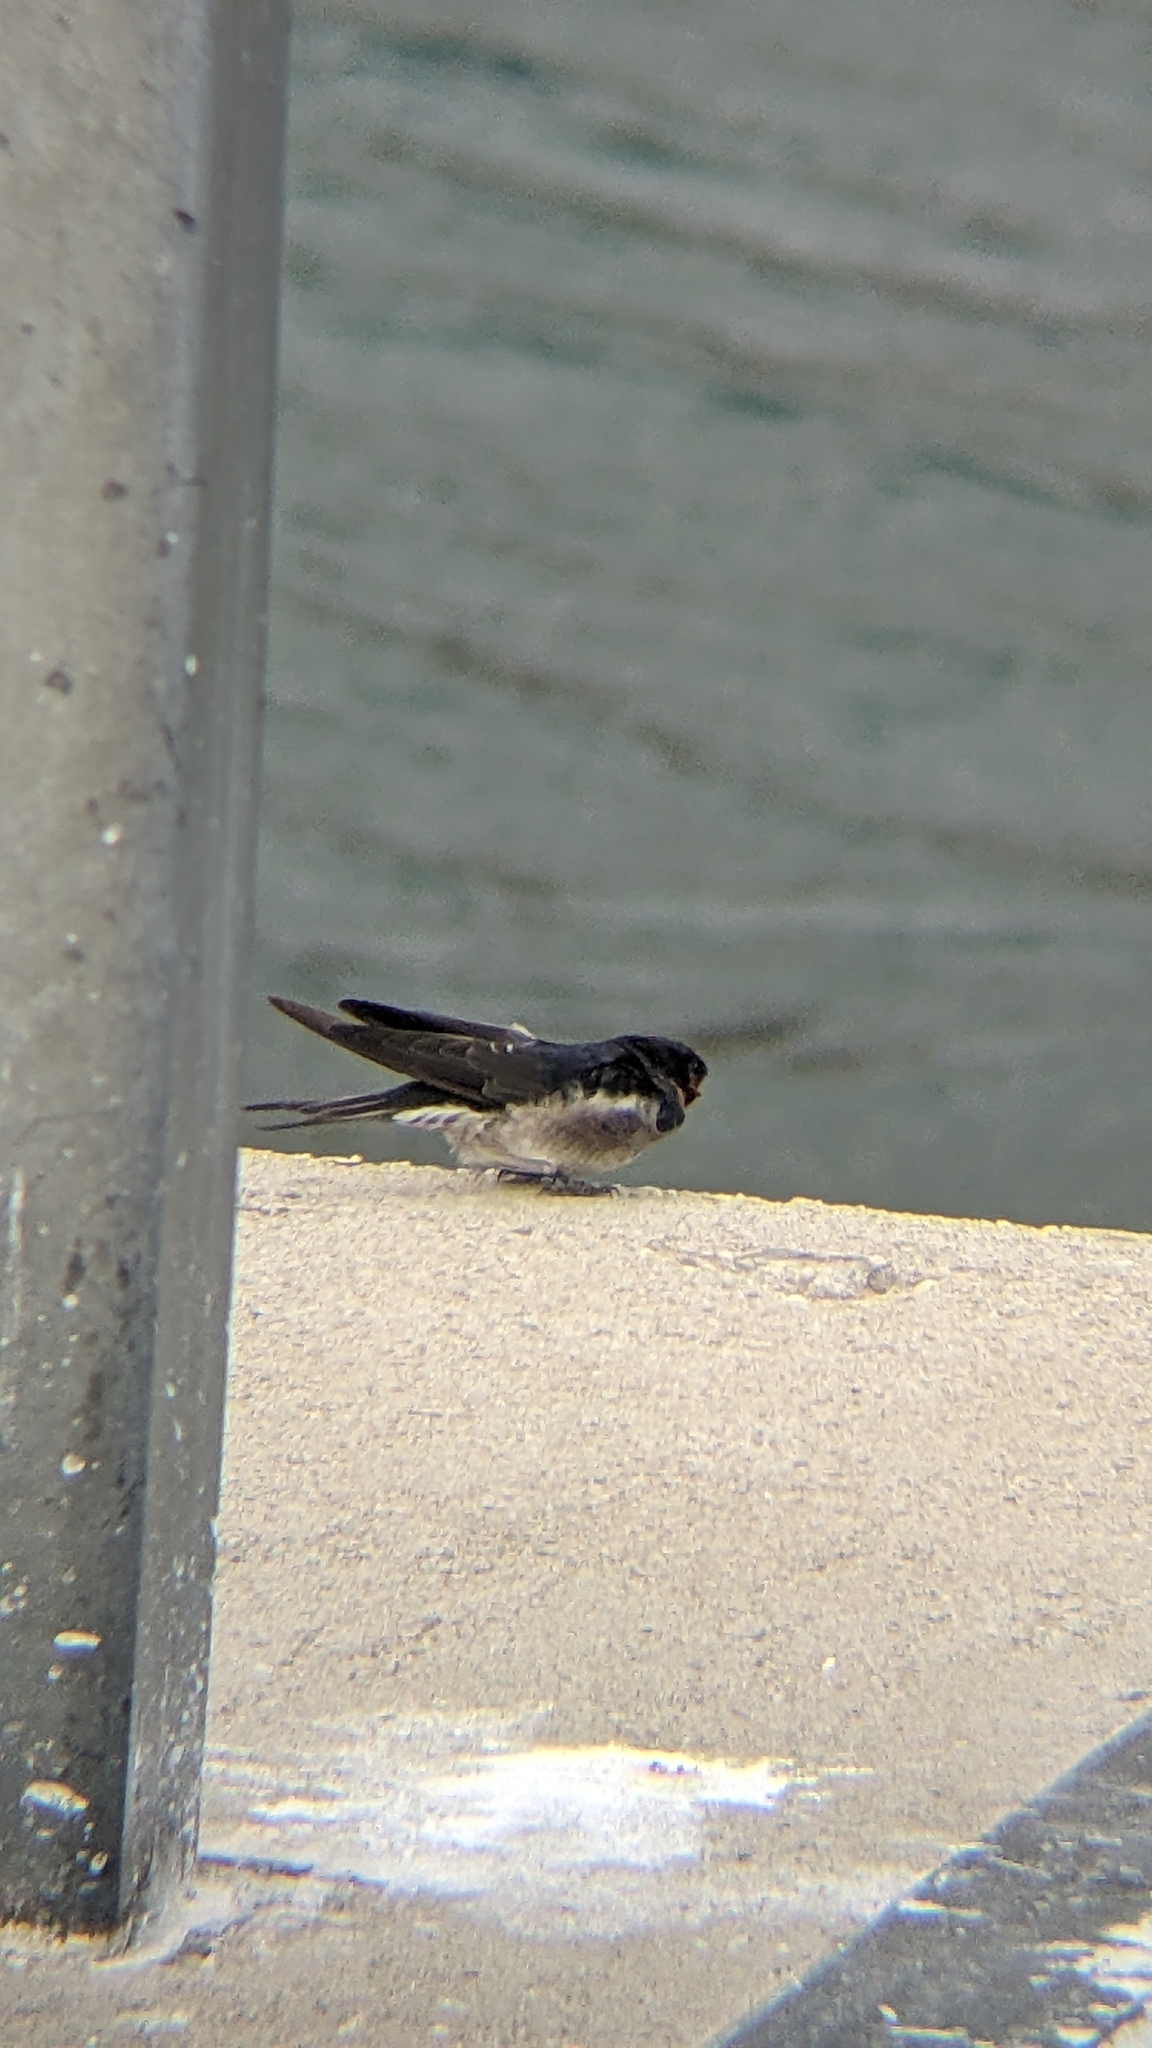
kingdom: Animalia
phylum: Chordata
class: Aves
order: Passeriformes
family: Hirundinidae
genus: Hirundo
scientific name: Hirundo neoxena
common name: Welcome swallow
